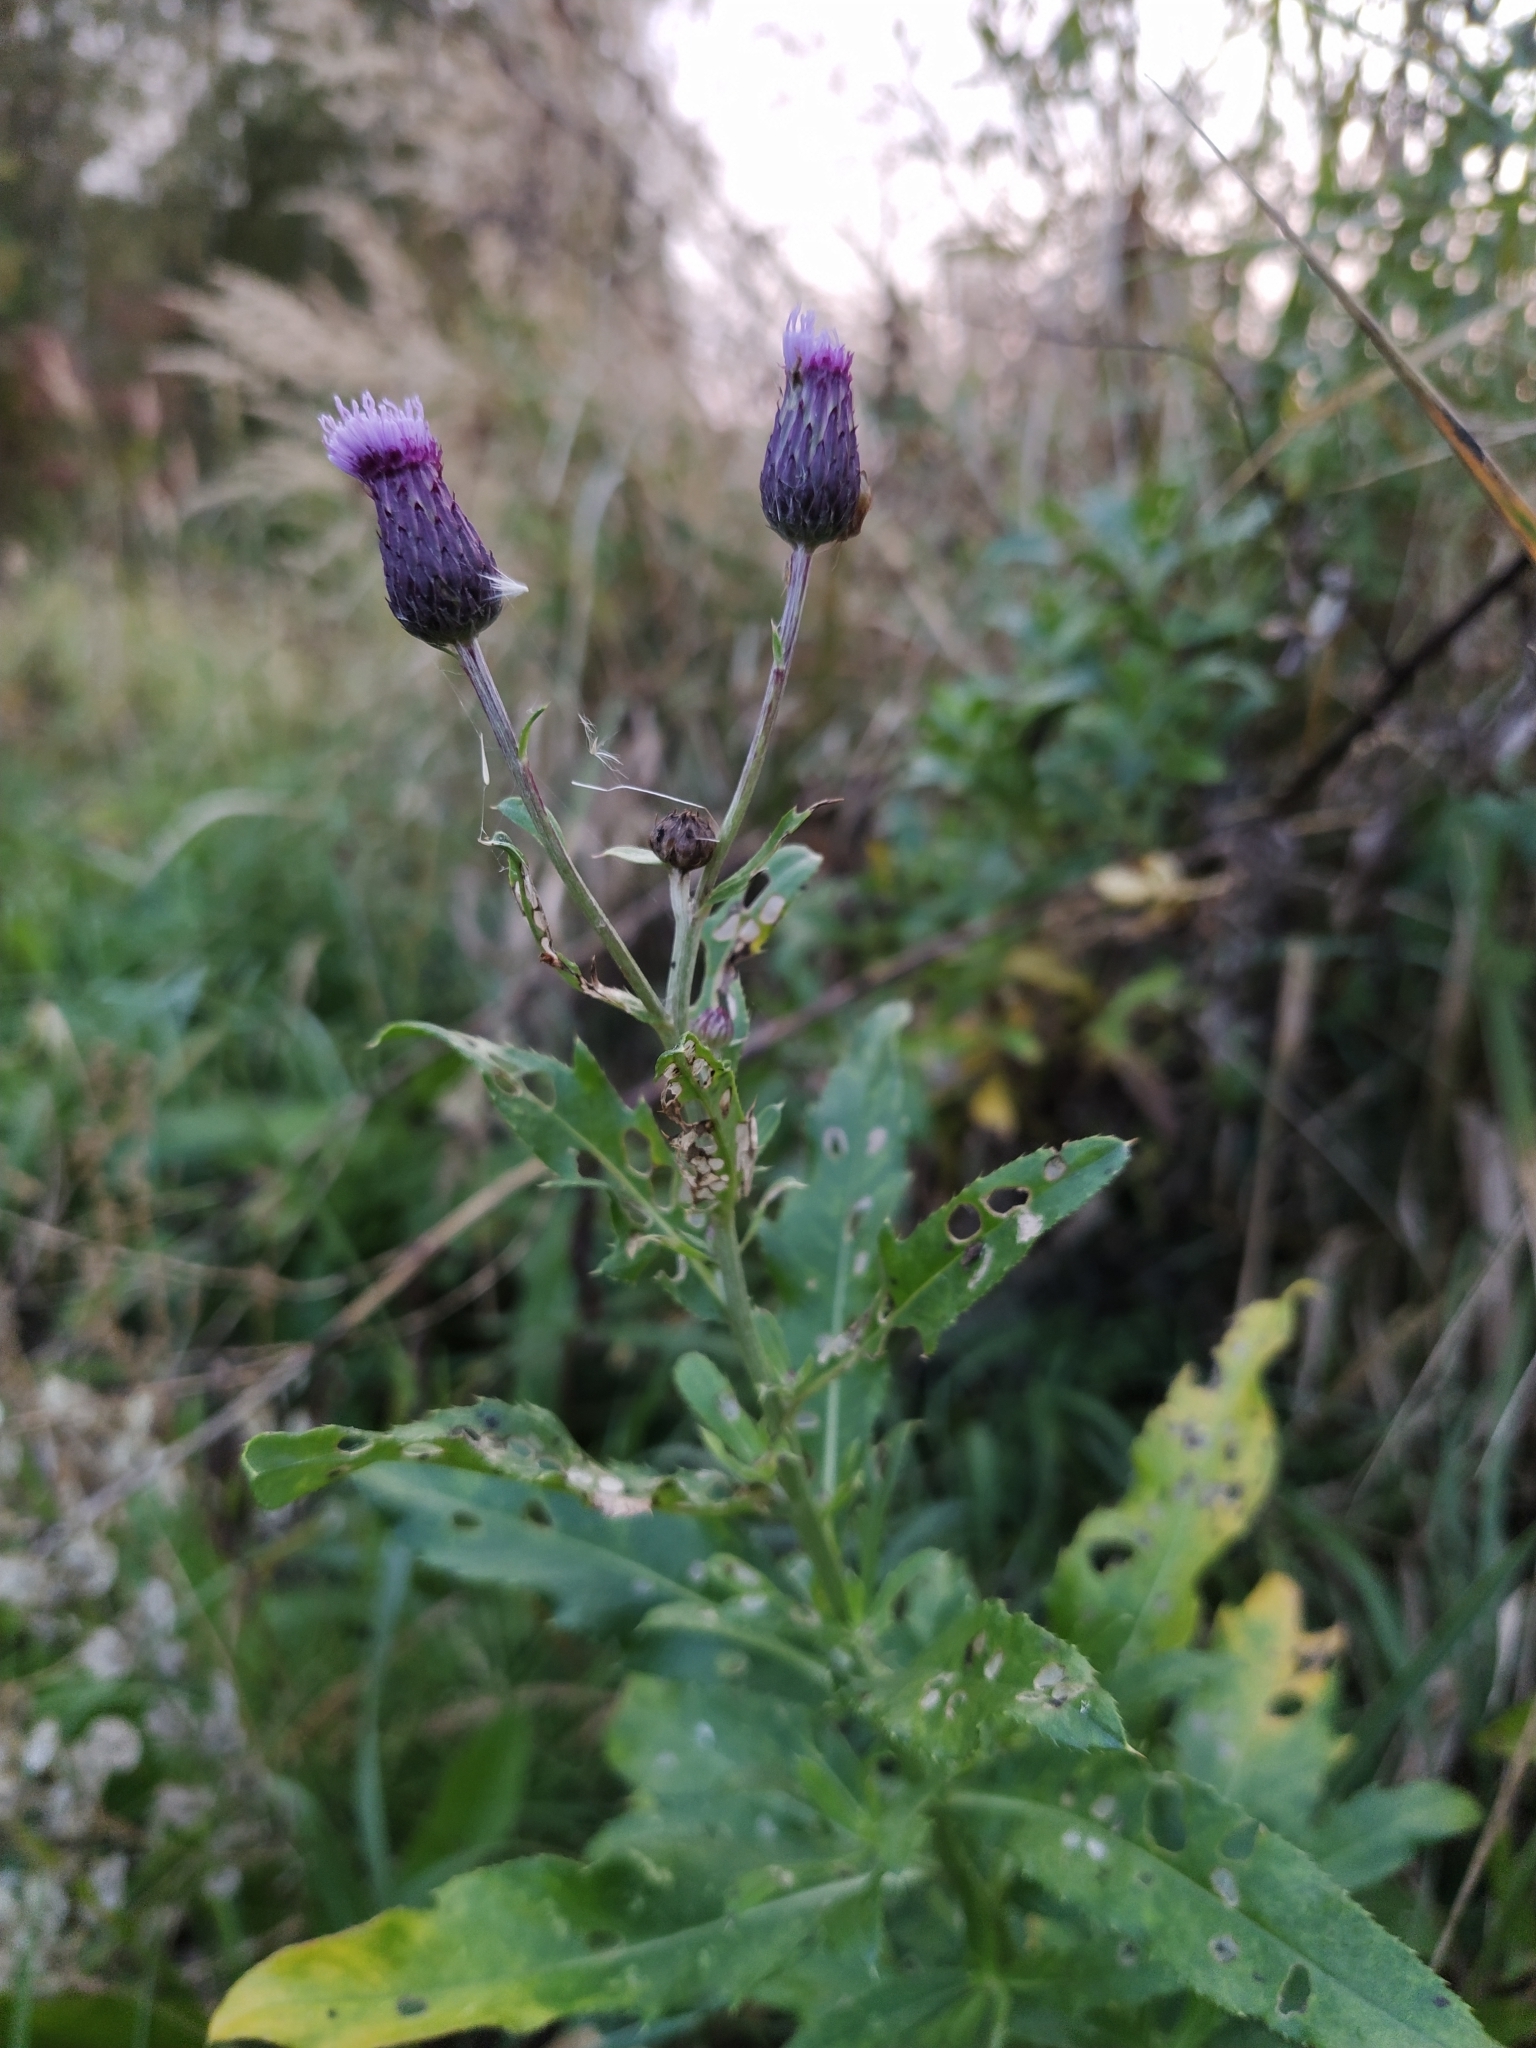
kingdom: Plantae
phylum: Tracheophyta
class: Magnoliopsida
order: Asterales
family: Asteraceae
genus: Cirsium
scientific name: Cirsium arvense
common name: Creeping thistle
